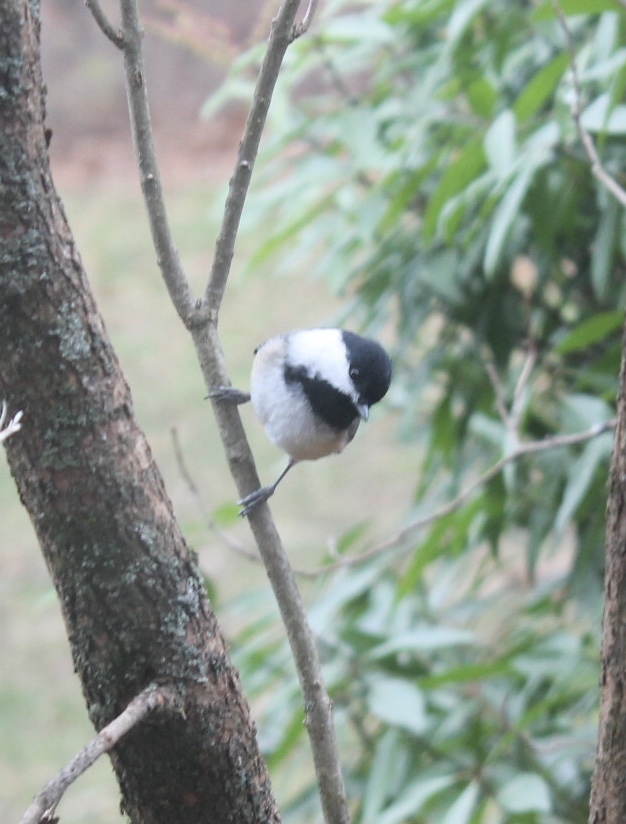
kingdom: Animalia
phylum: Chordata
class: Aves
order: Passeriformes
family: Paridae
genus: Poecile
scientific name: Poecile atricapillus
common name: Black-capped chickadee
